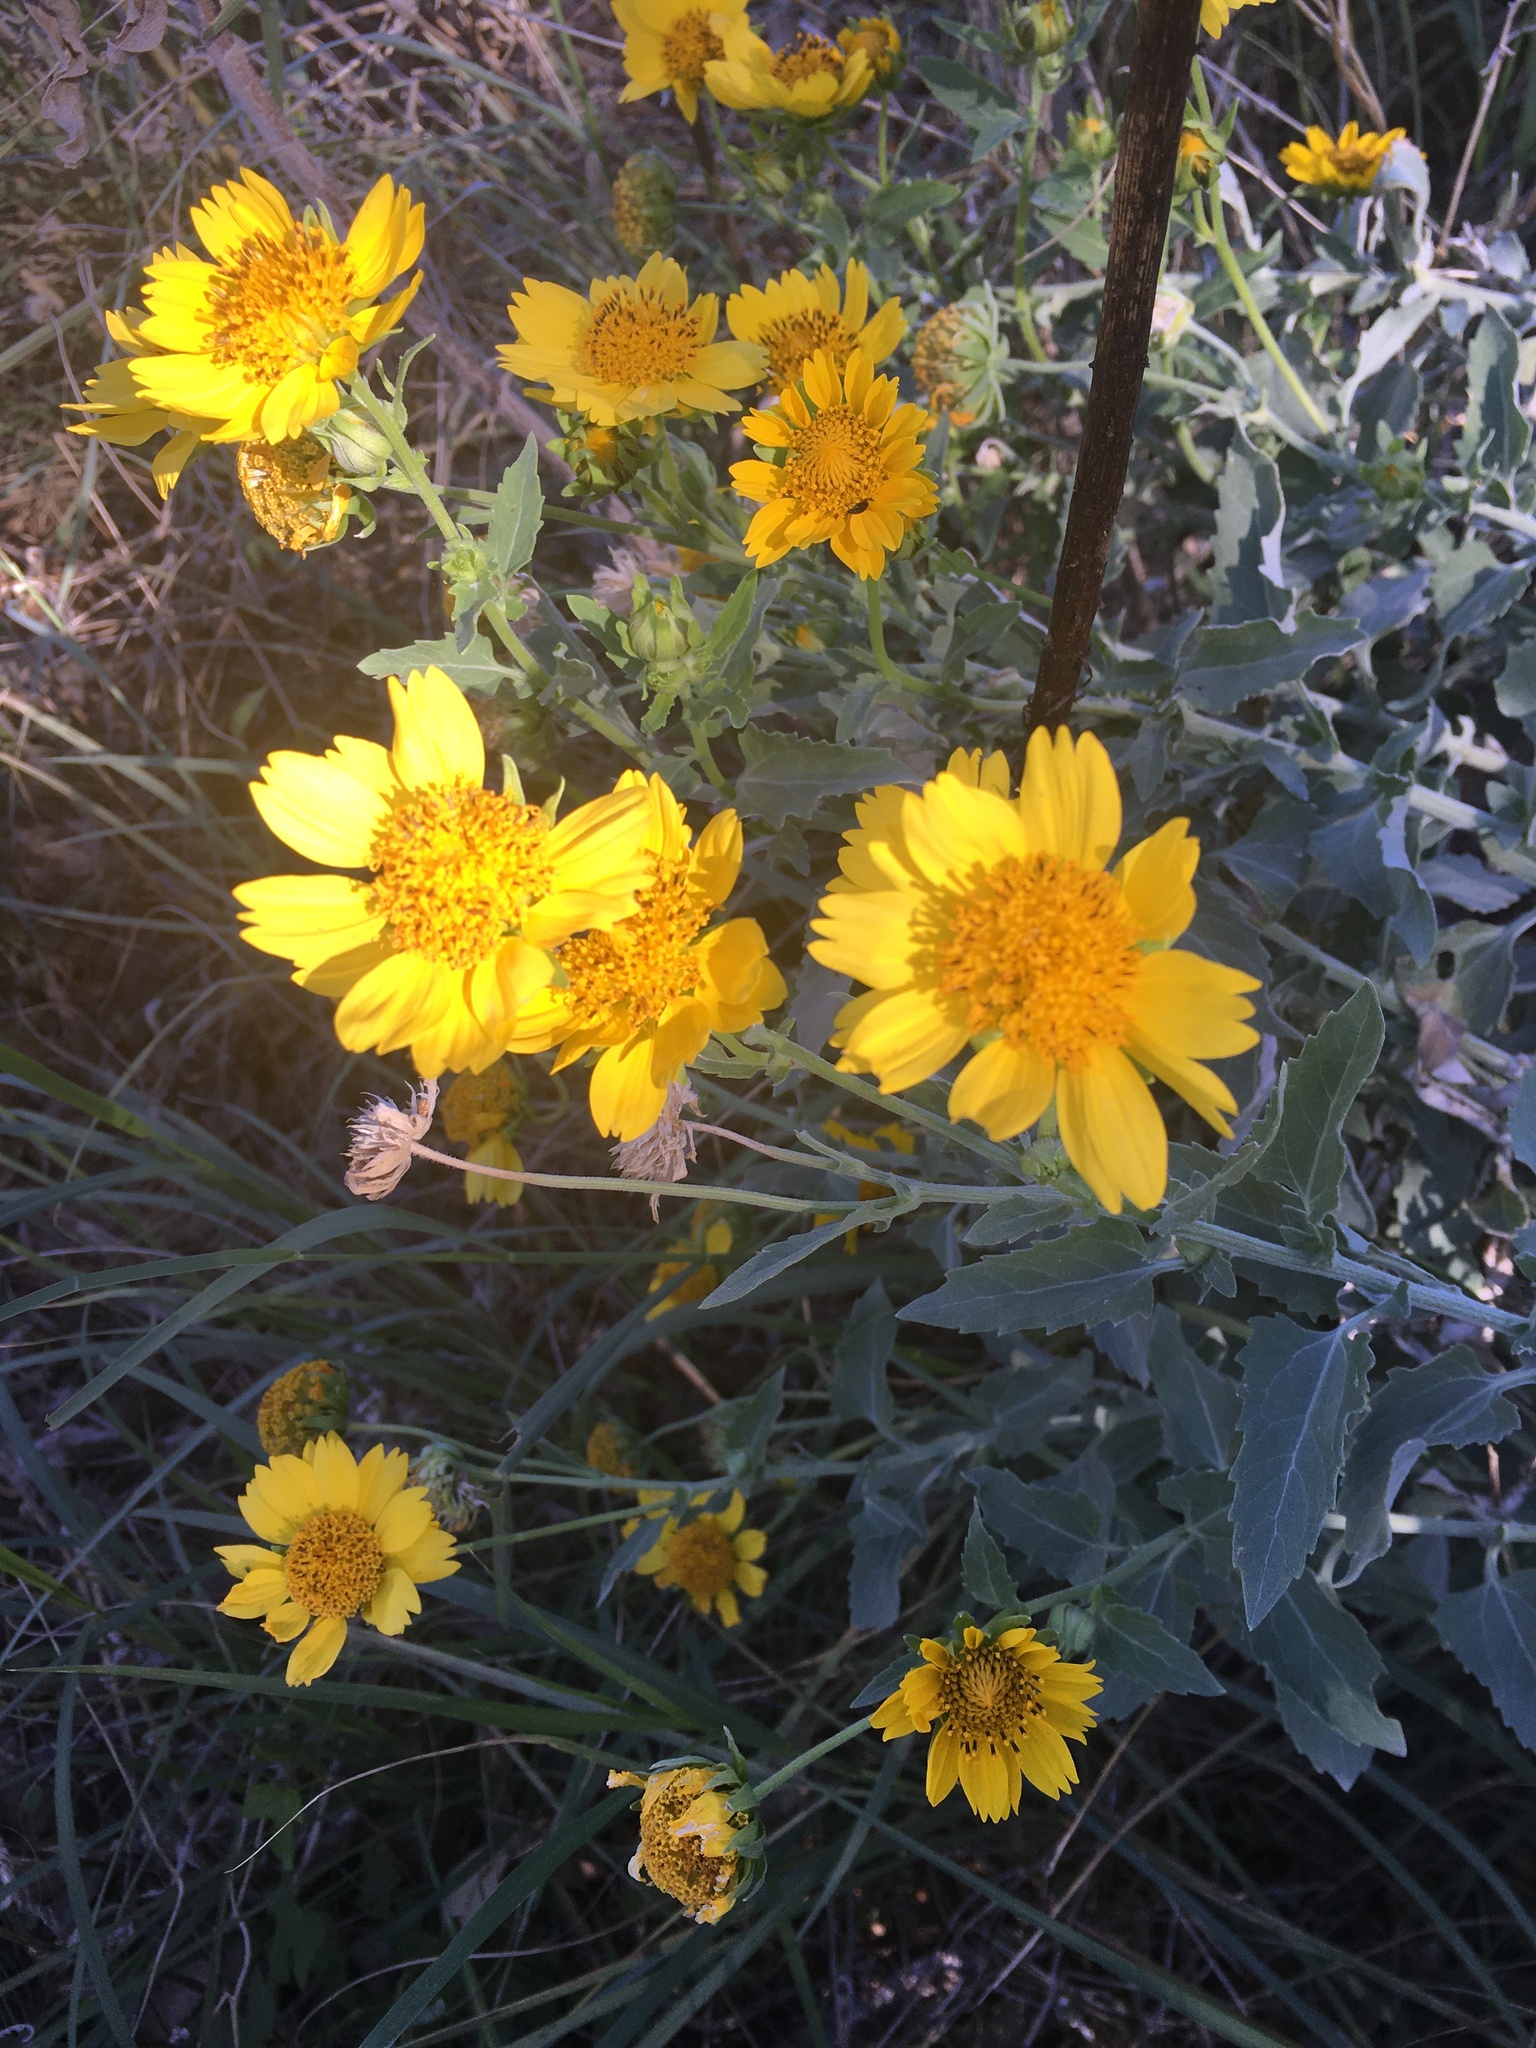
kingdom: Plantae
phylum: Tracheophyta
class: Magnoliopsida
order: Asterales
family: Asteraceae
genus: Verbesina
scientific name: Verbesina encelioides
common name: Golden crownbeard
